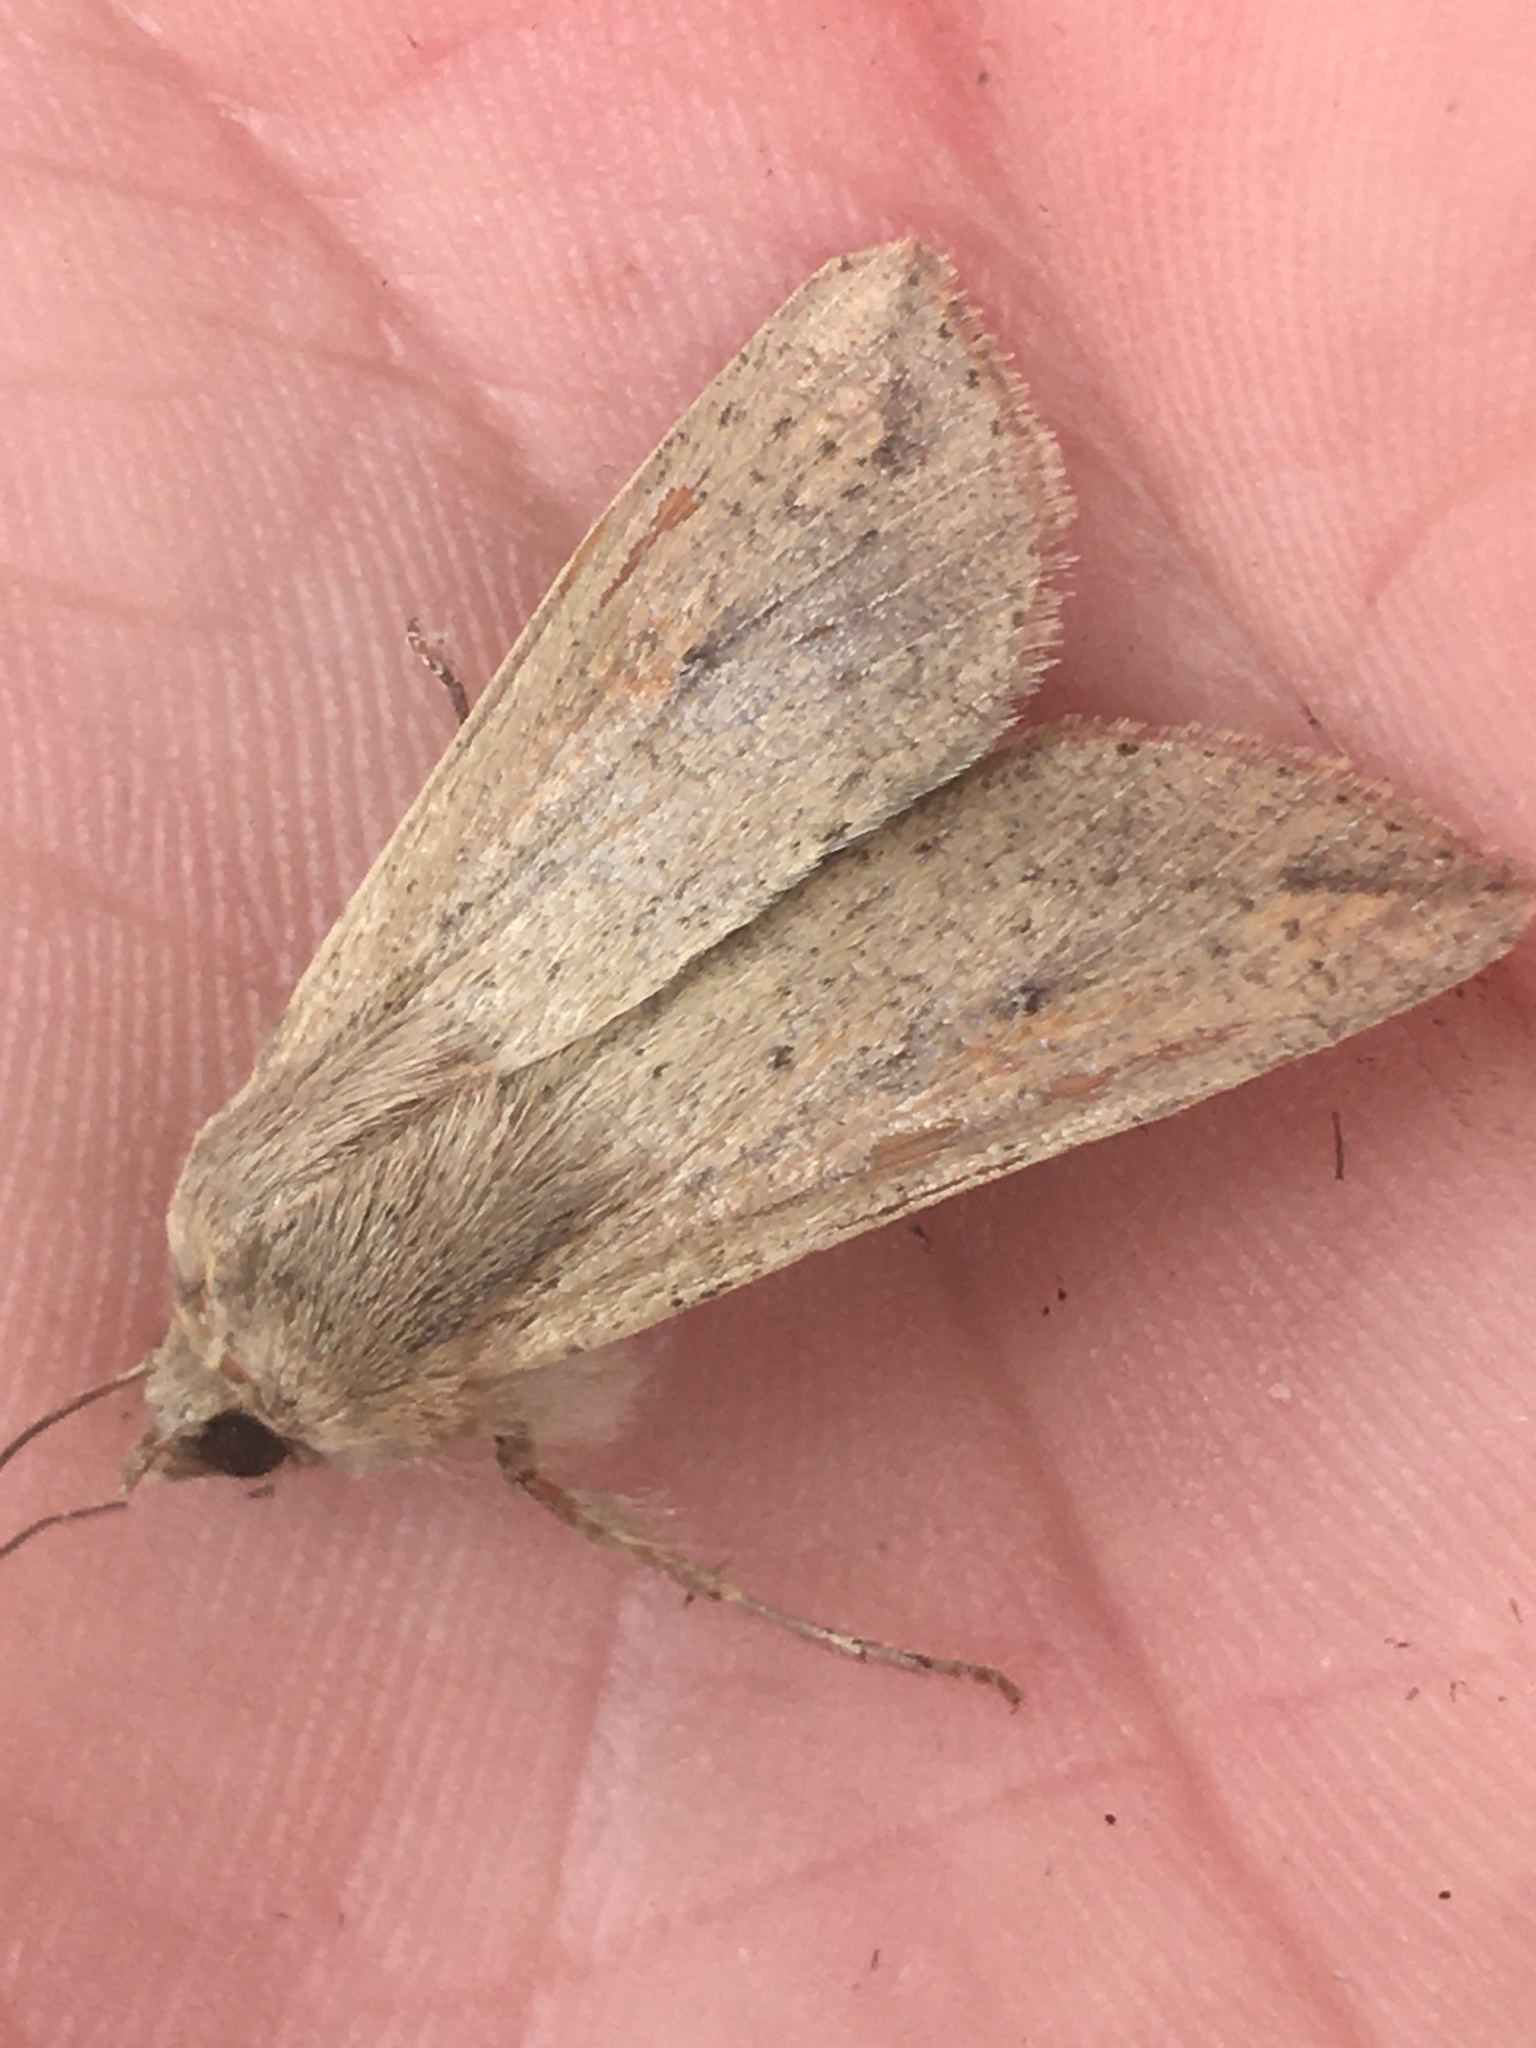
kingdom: Animalia
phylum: Arthropoda
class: Insecta
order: Lepidoptera
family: Noctuidae
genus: Mythimna
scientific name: Mythimna unipuncta
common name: White-speck
